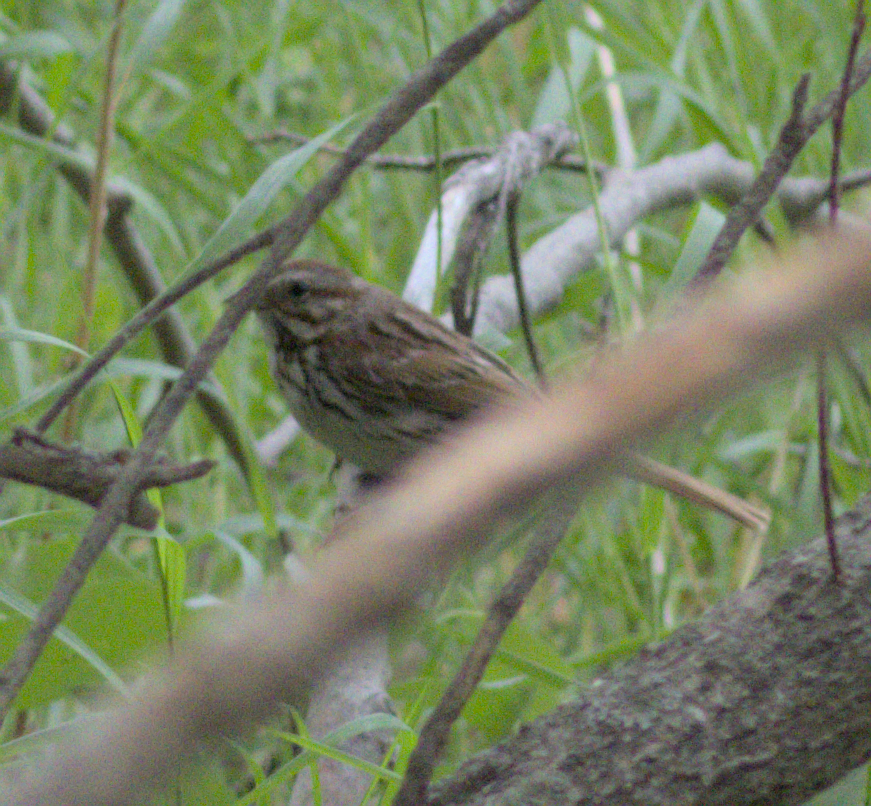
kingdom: Animalia
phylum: Chordata
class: Aves
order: Passeriformes
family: Passerellidae
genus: Melospiza
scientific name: Melospiza melodia
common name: Song sparrow
